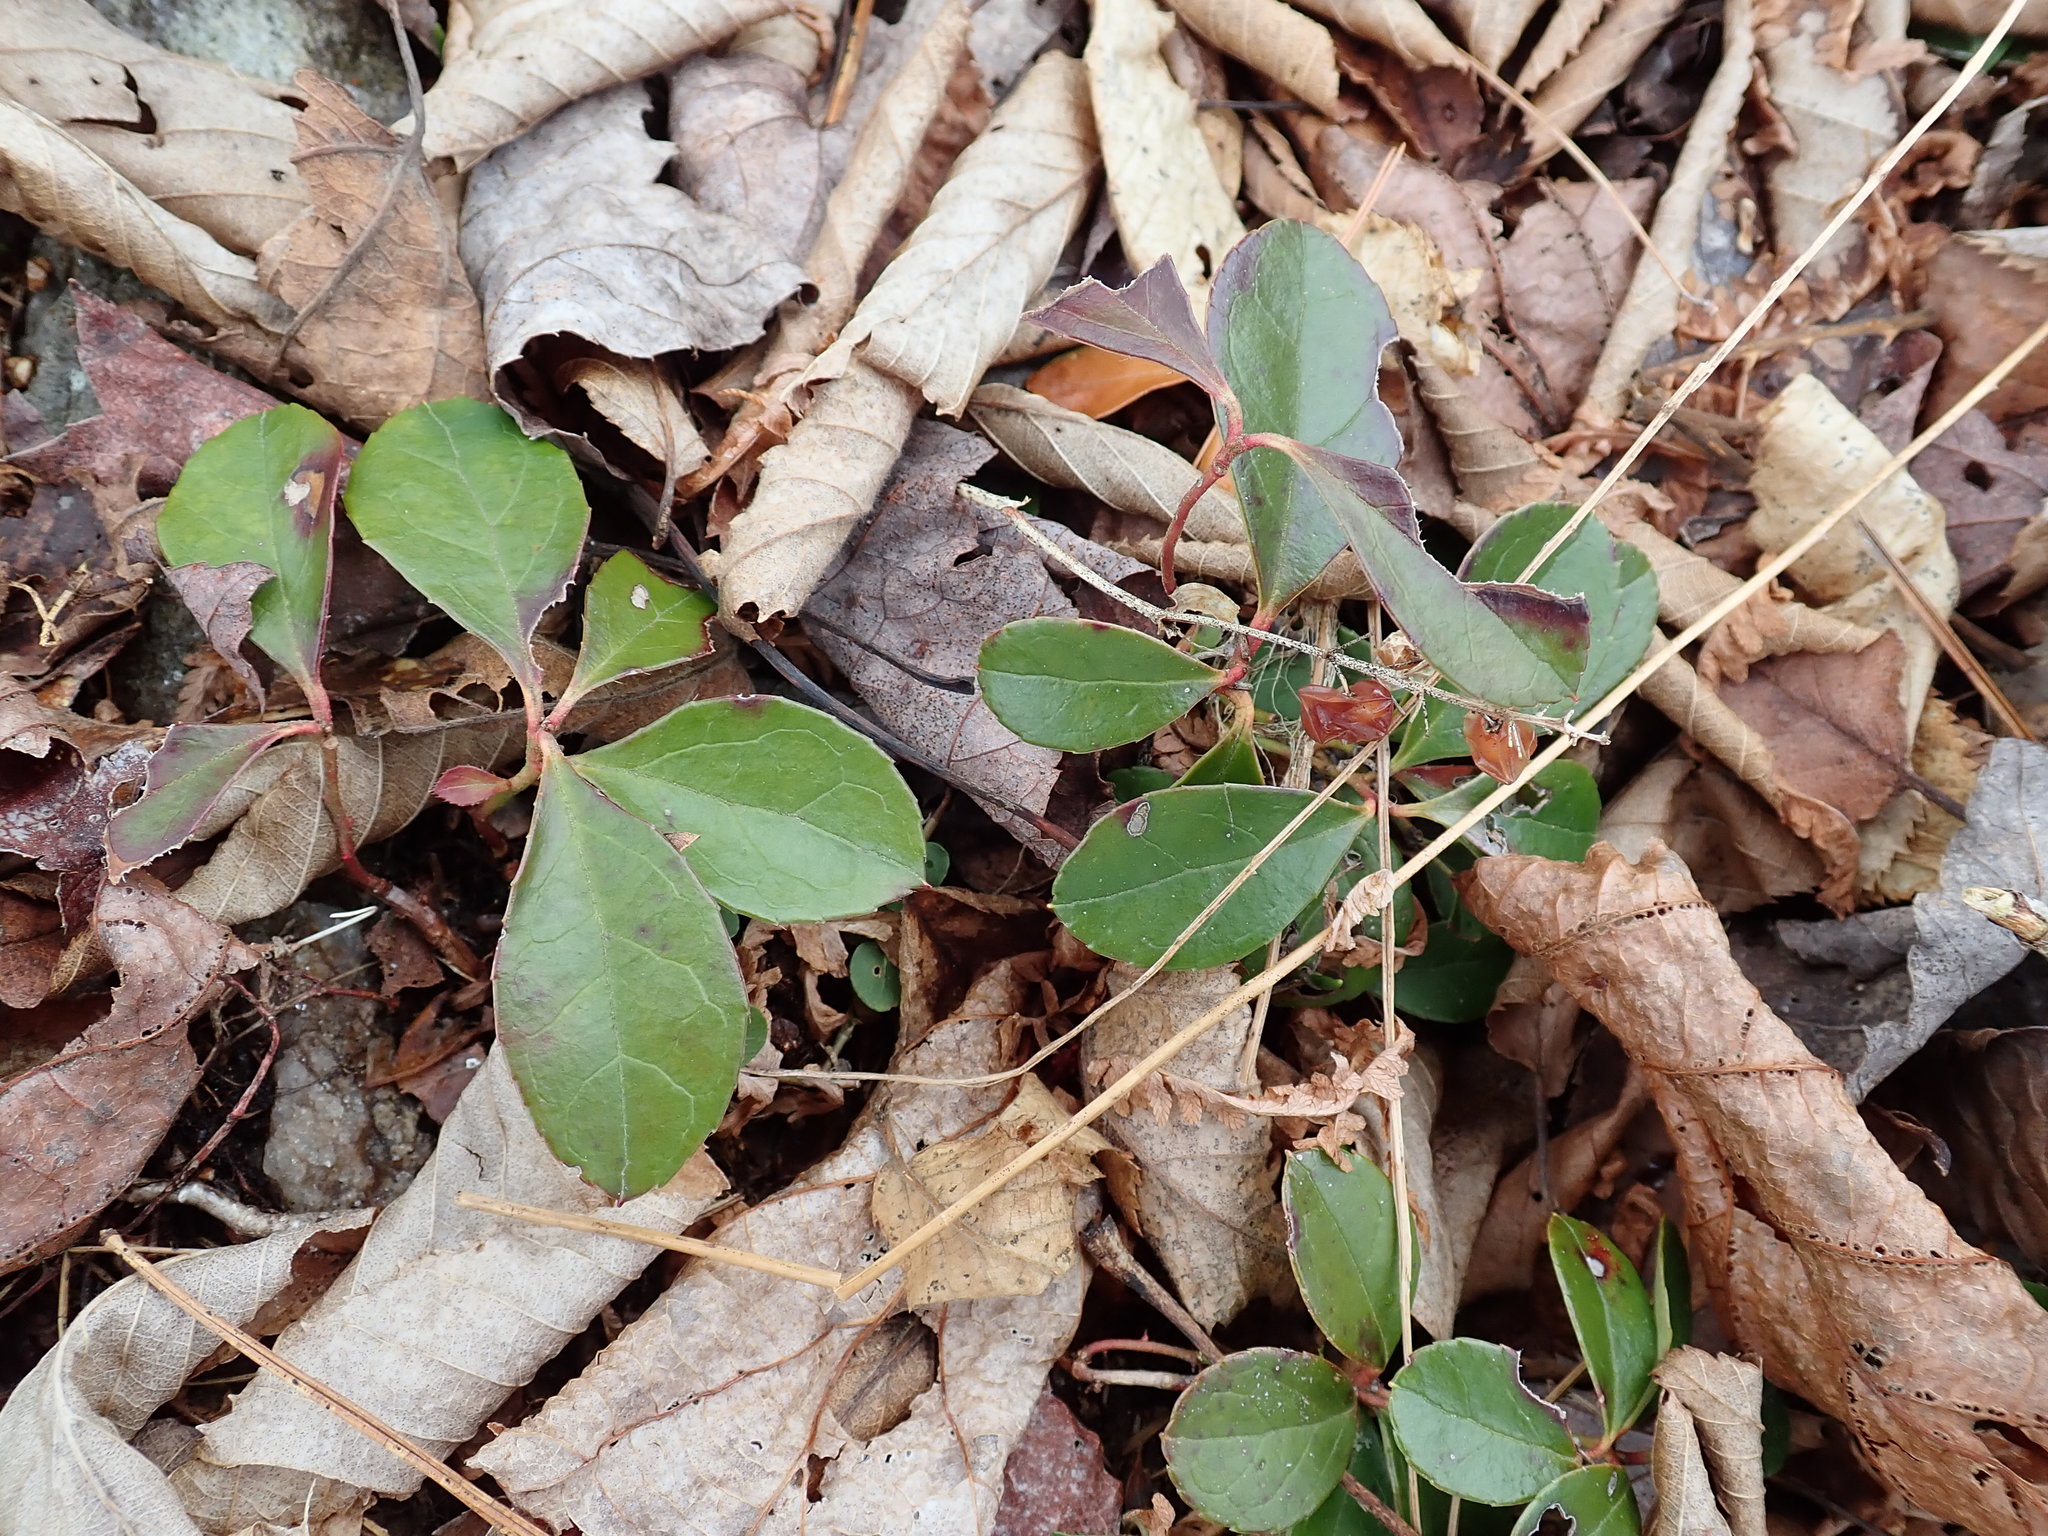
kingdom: Plantae
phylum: Tracheophyta
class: Magnoliopsida
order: Ericales
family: Ericaceae
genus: Gaultheria
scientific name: Gaultheria procumbens
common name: Checkerberry
